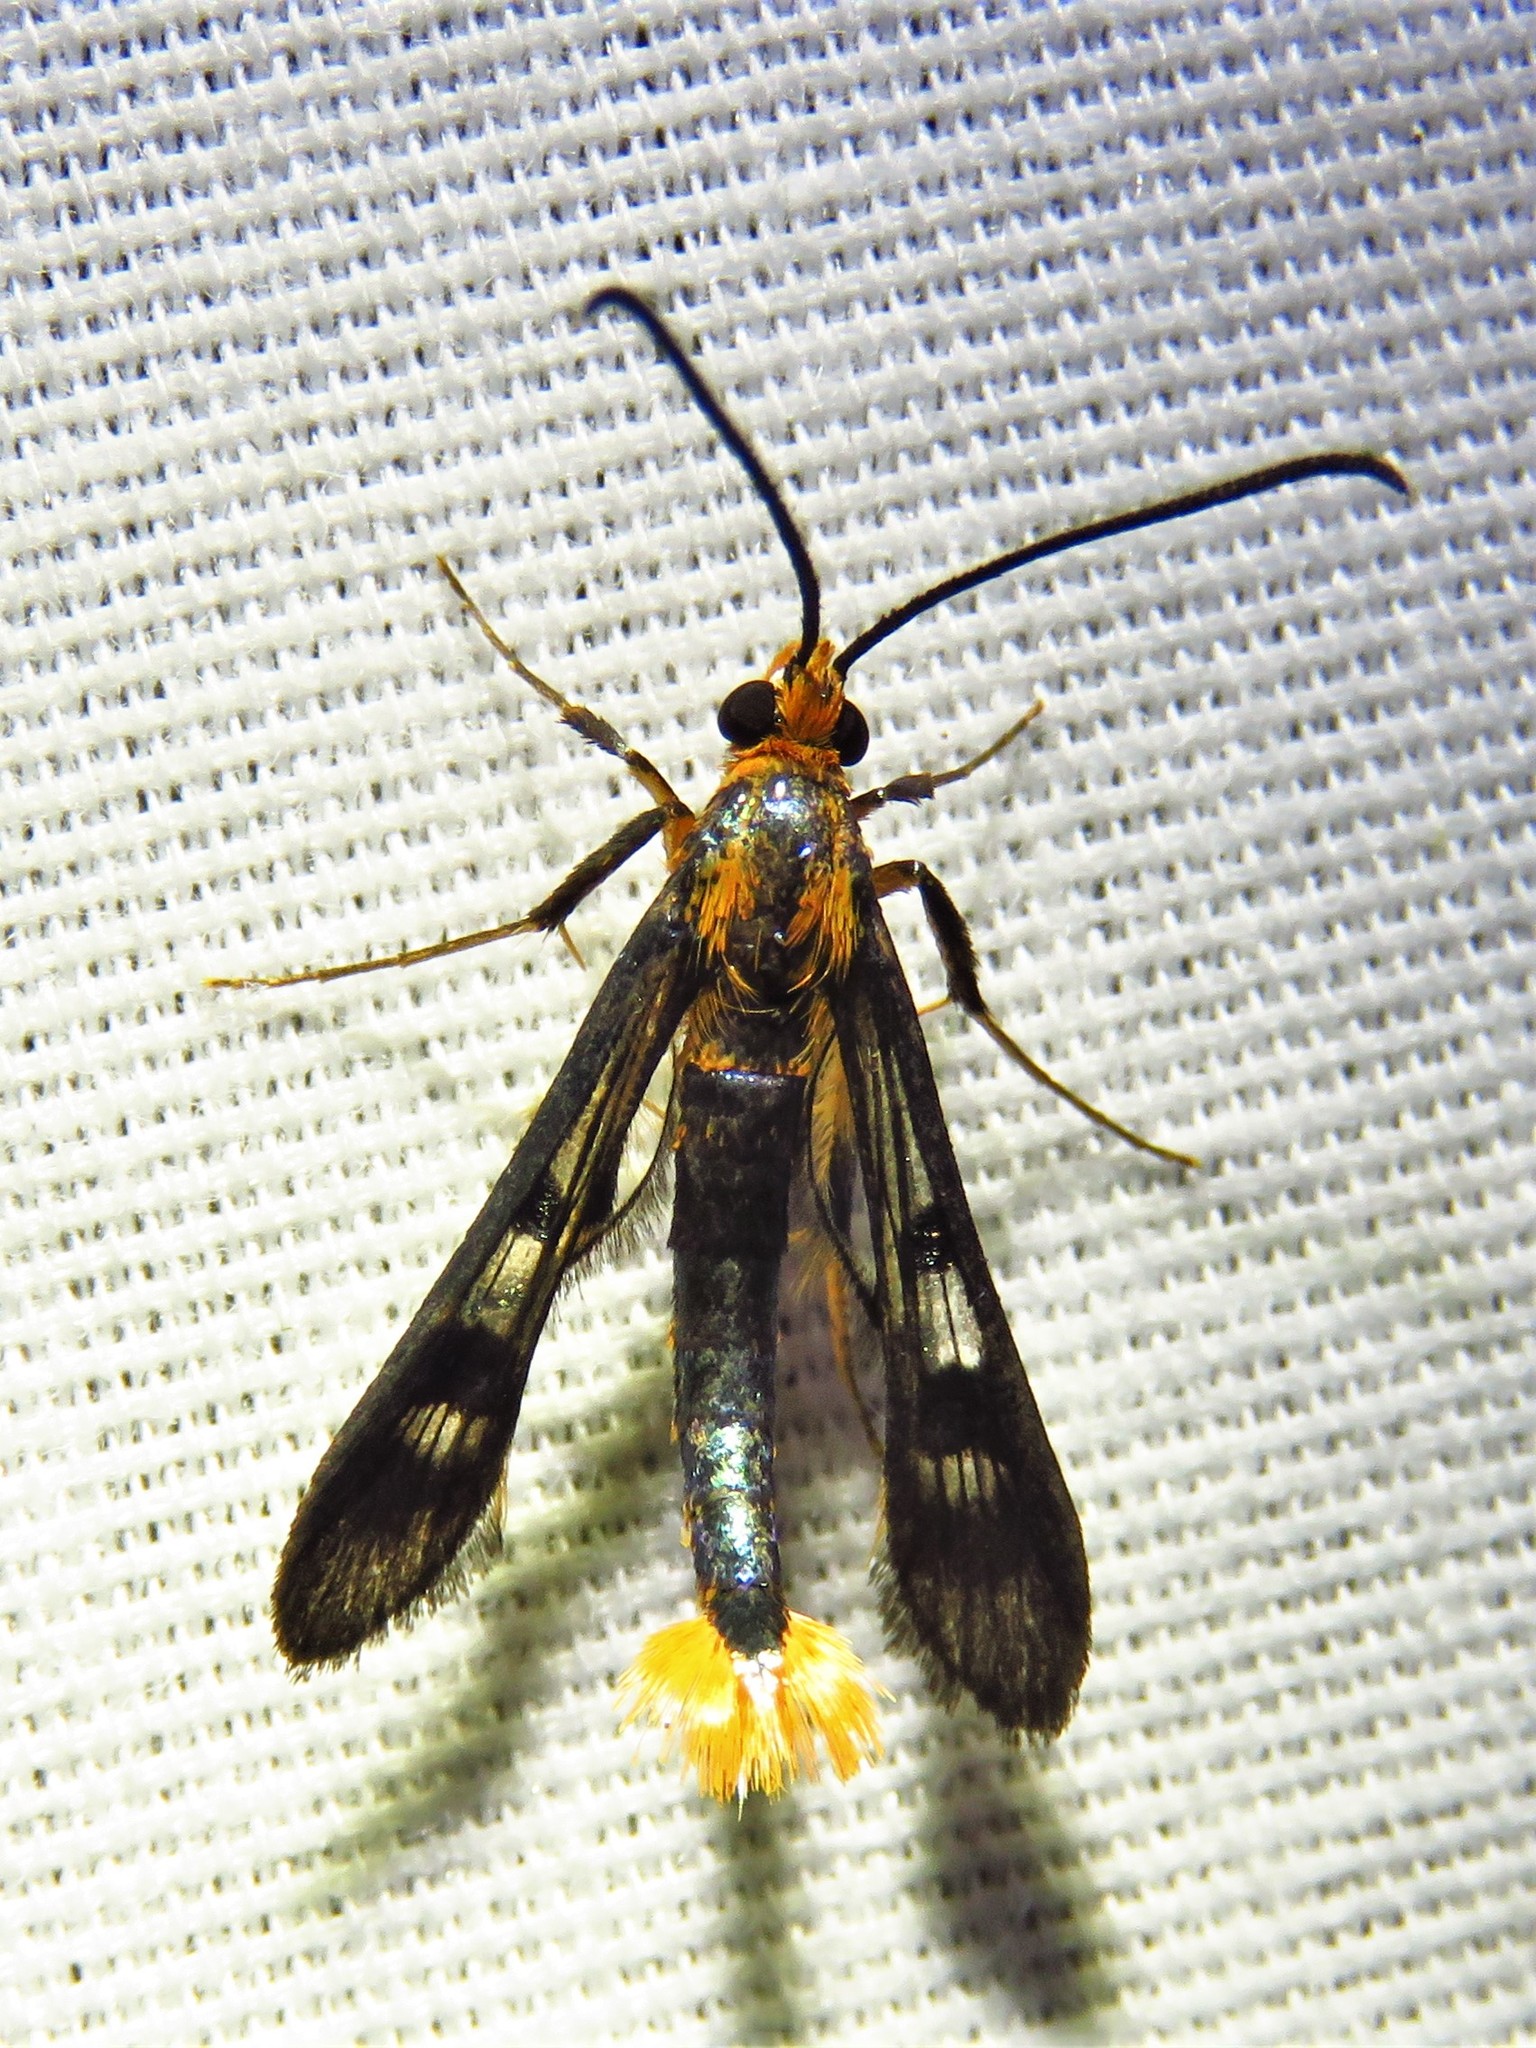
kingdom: Animalia
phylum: Arthropoda
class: Insecta
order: Lepidoptera
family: Sesiidae
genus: Synanthedon
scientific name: Synanthedon acerni
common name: Maple callus borer moth
